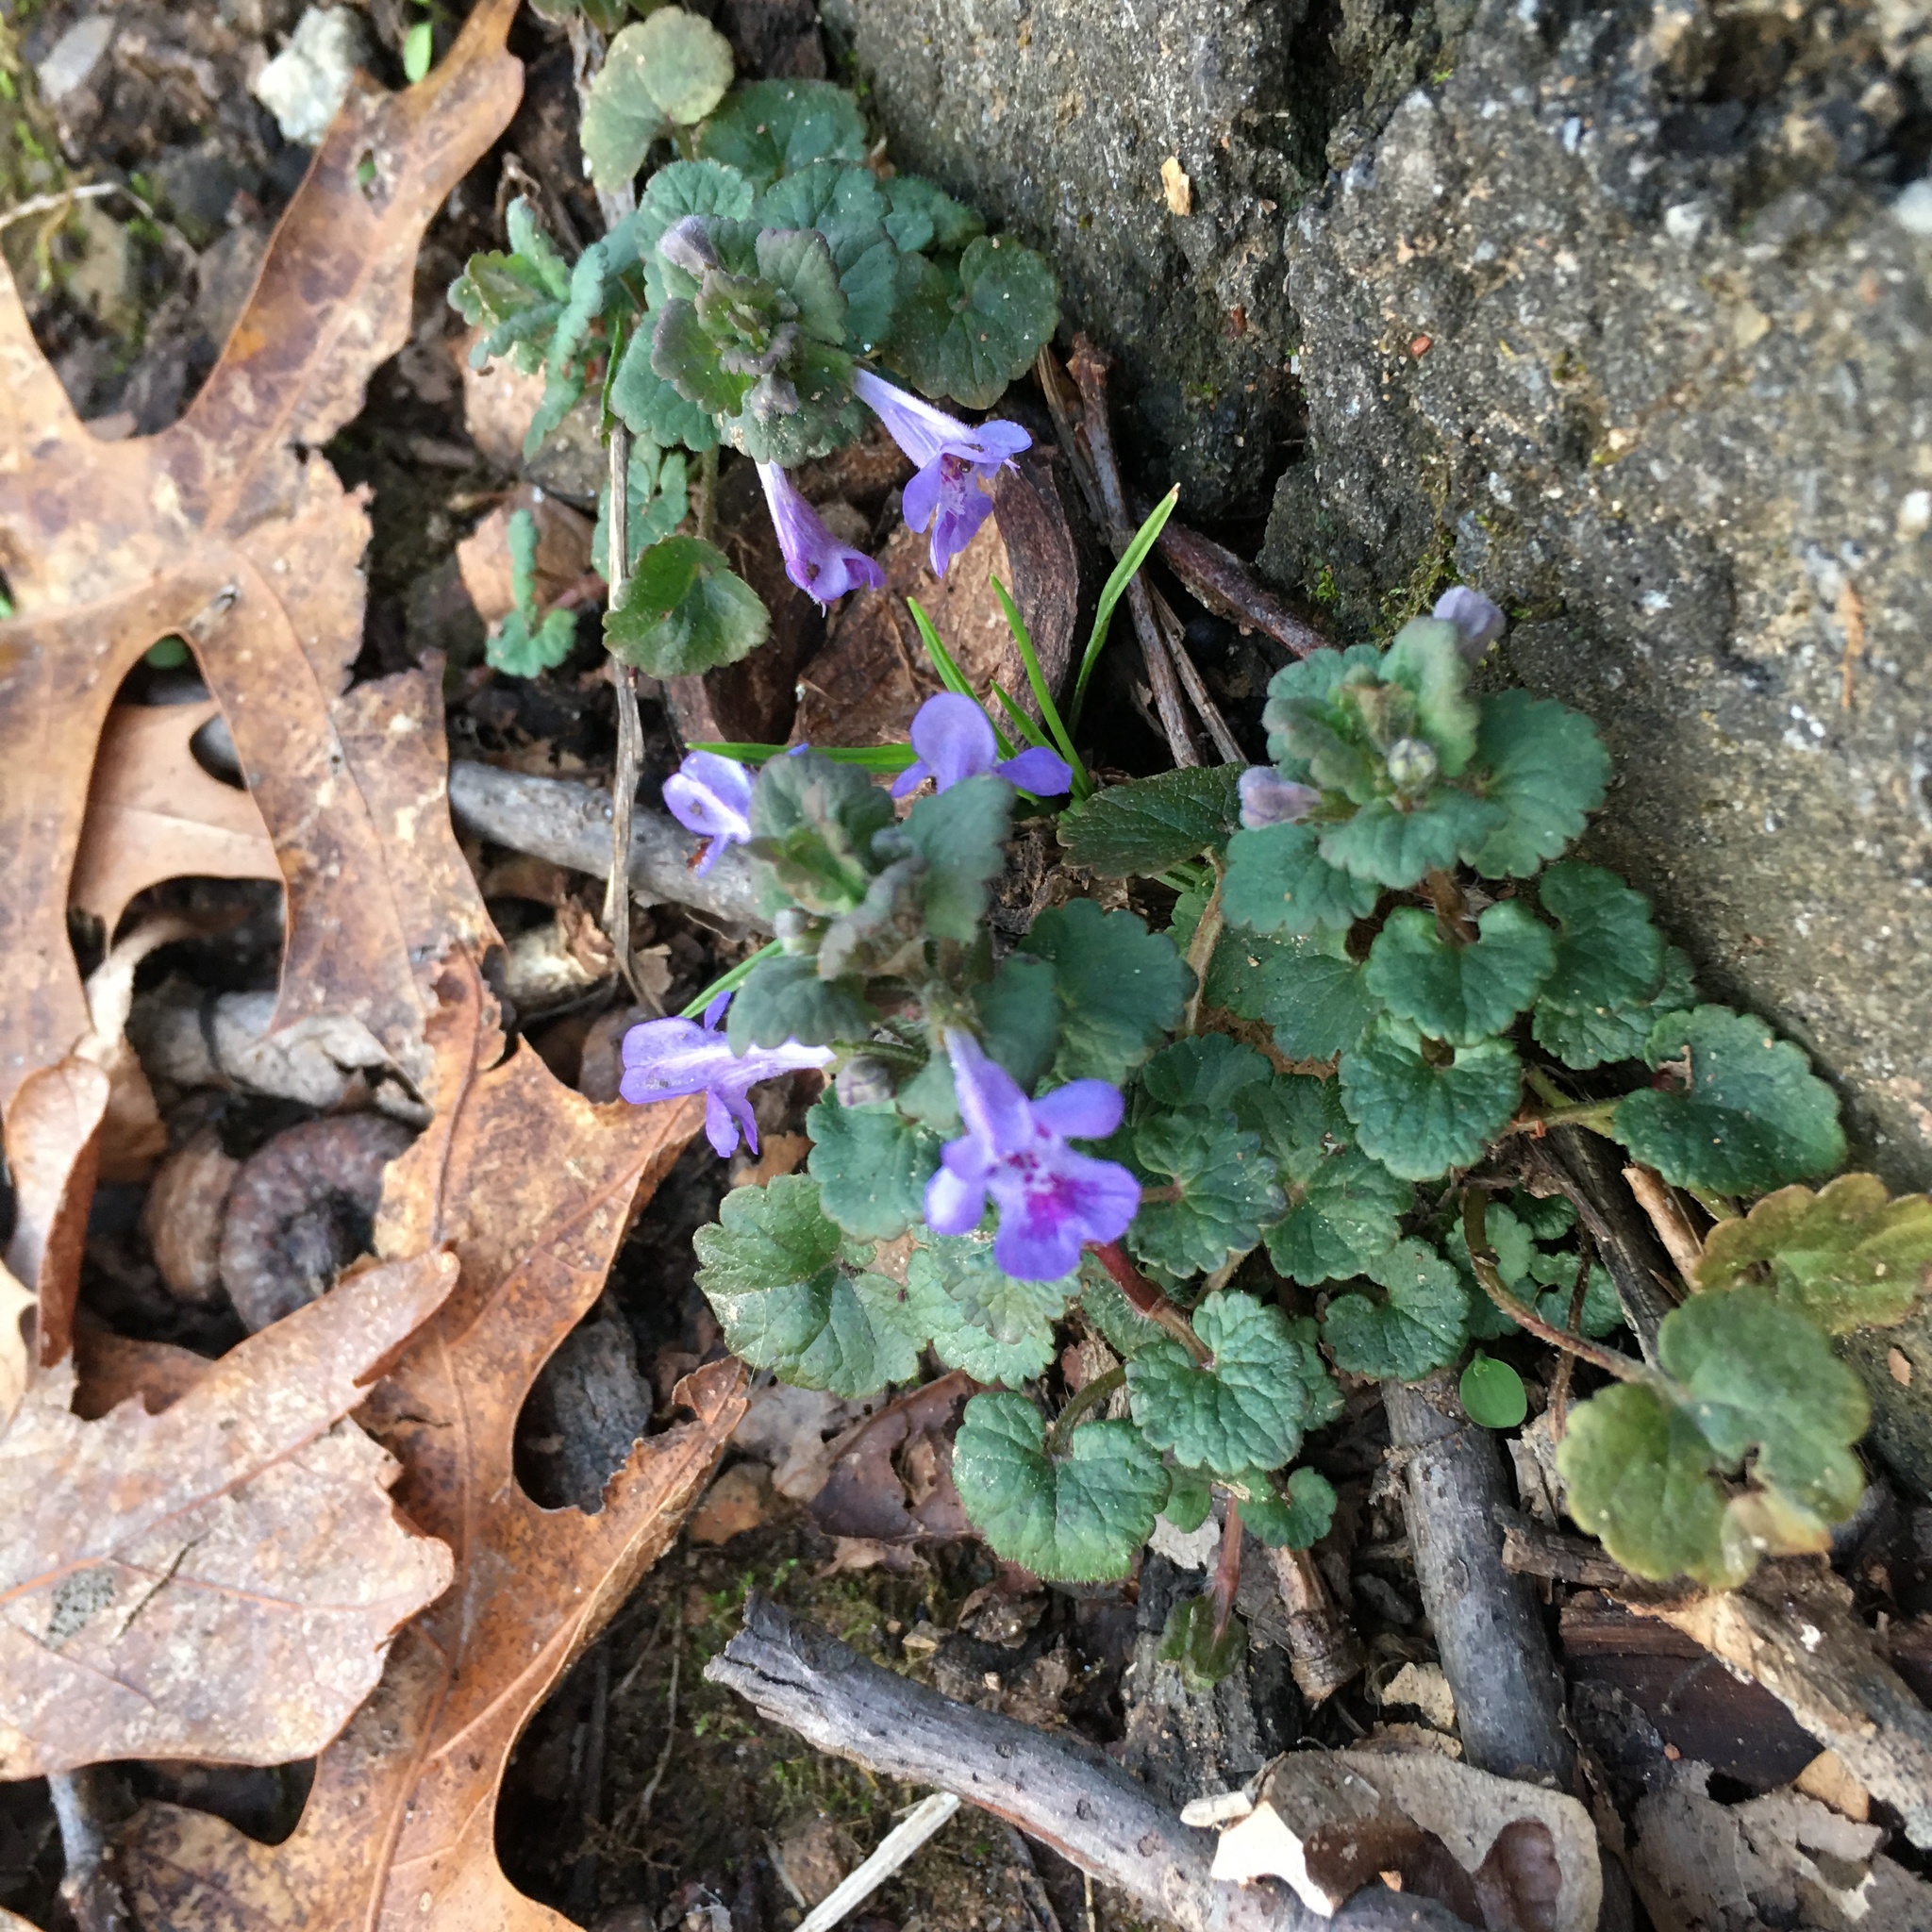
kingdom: Plantae
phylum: Tracheophyta
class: Magnoliopsida
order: Lamiales
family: Lamiaceae
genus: Glechoma
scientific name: Glechoma hederacea
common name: Ground ivy
